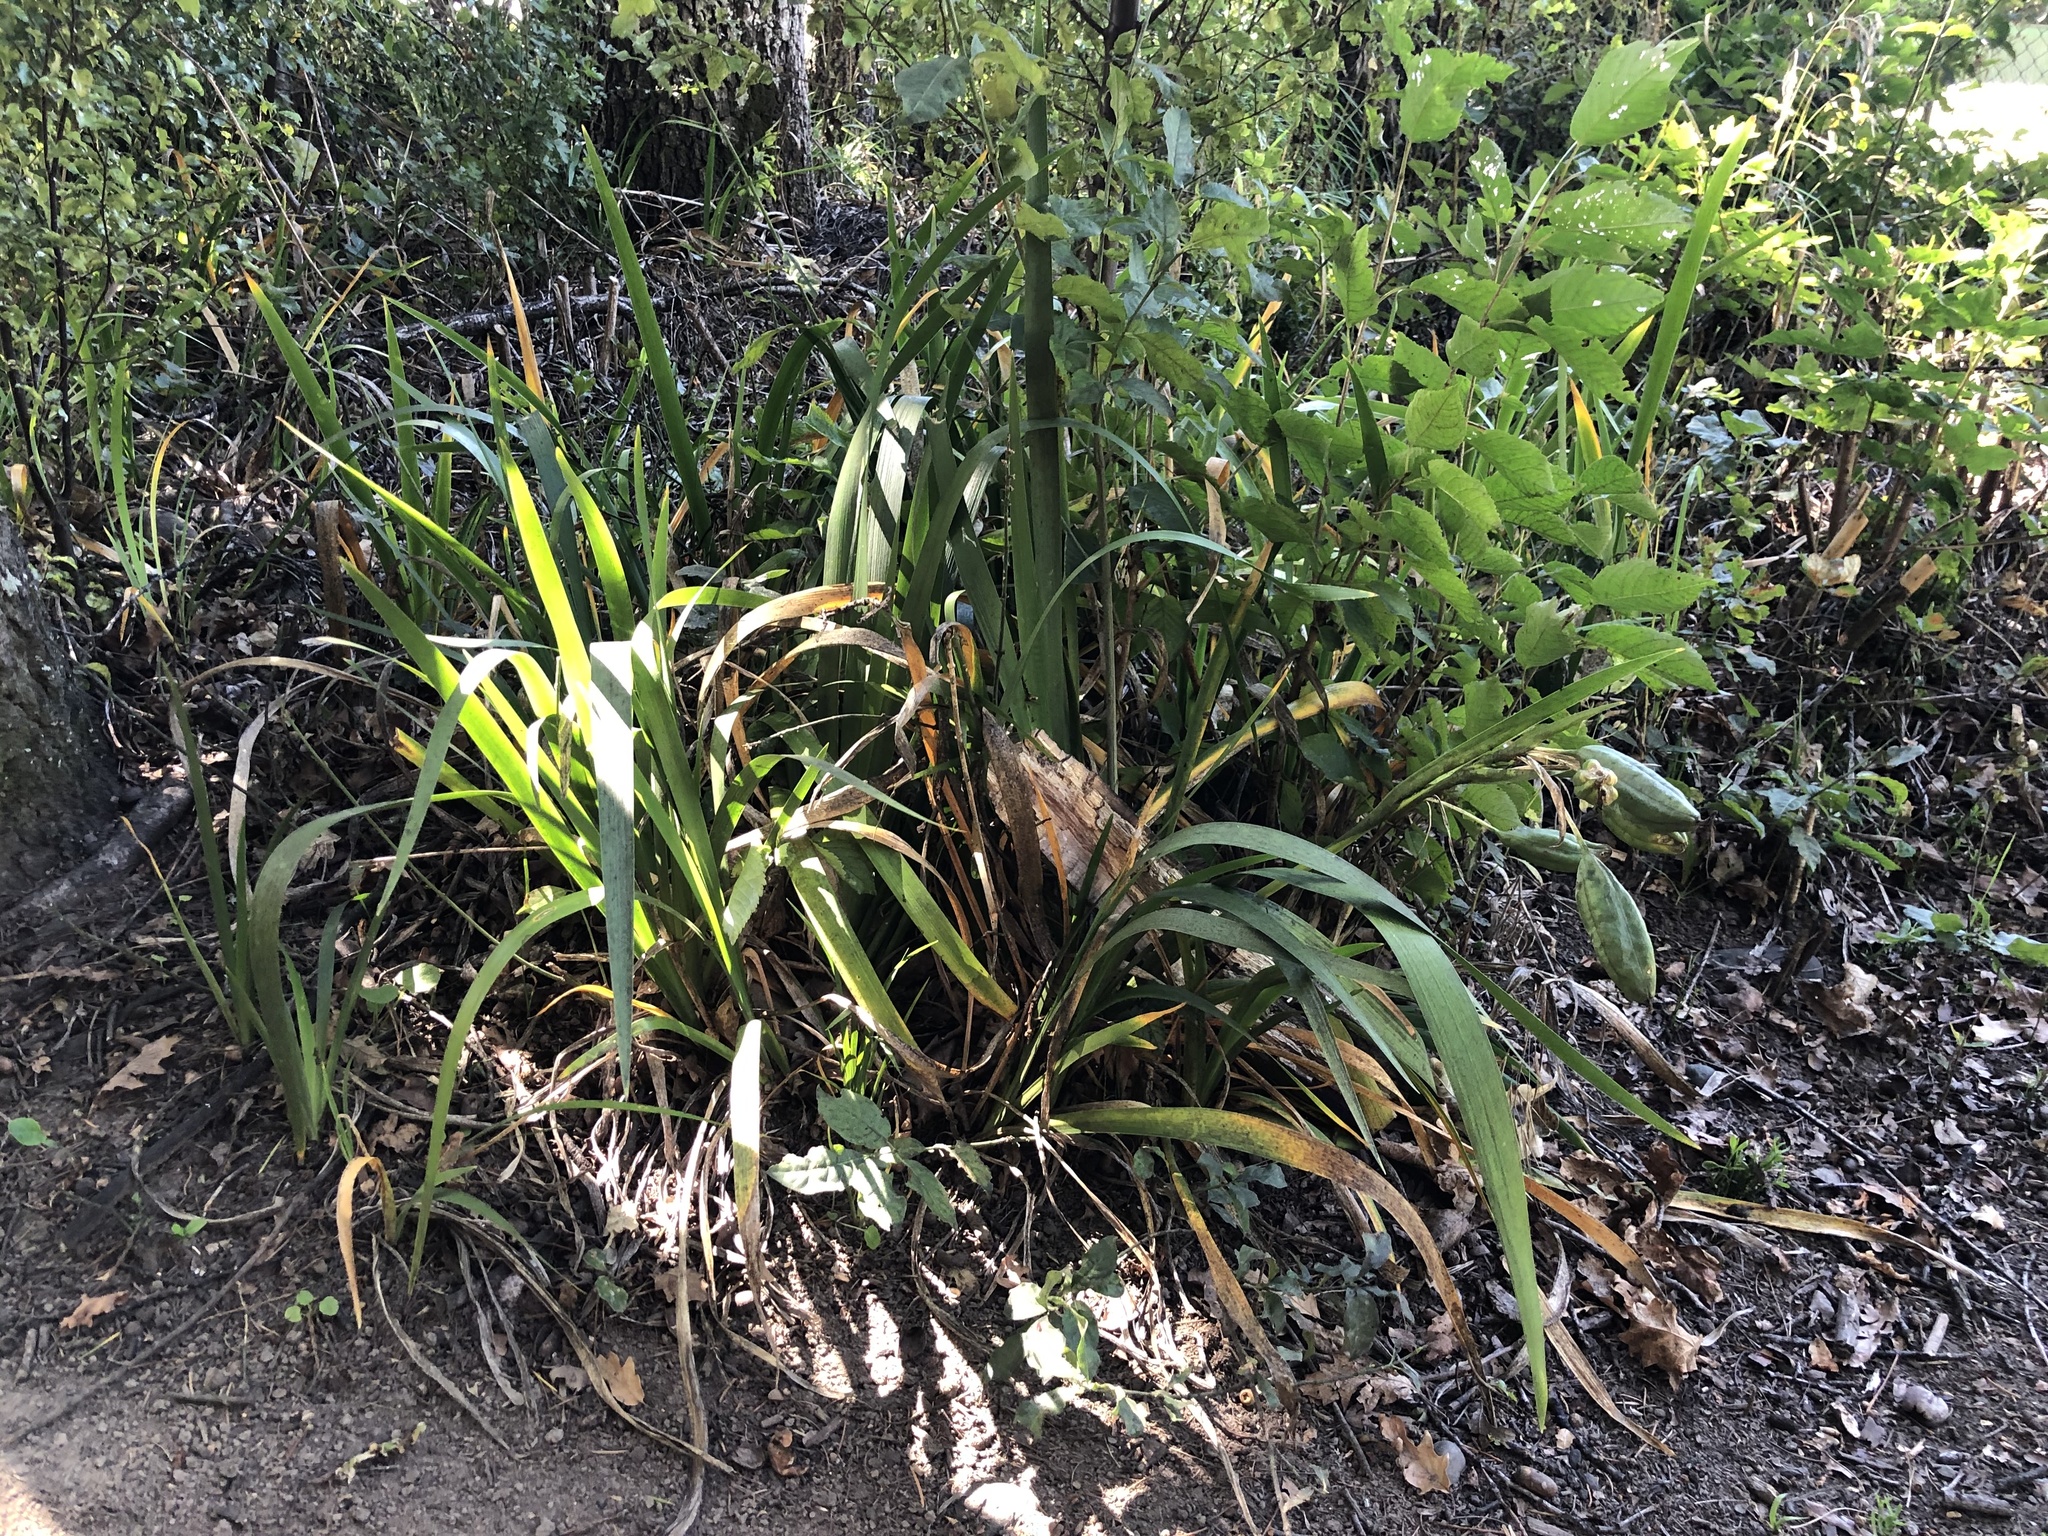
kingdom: Plantae
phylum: Tracheophyta
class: Liliopsida
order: Asparagales
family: Iridaceae
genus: Iris
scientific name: Iris foetidissima
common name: Stinking iris
